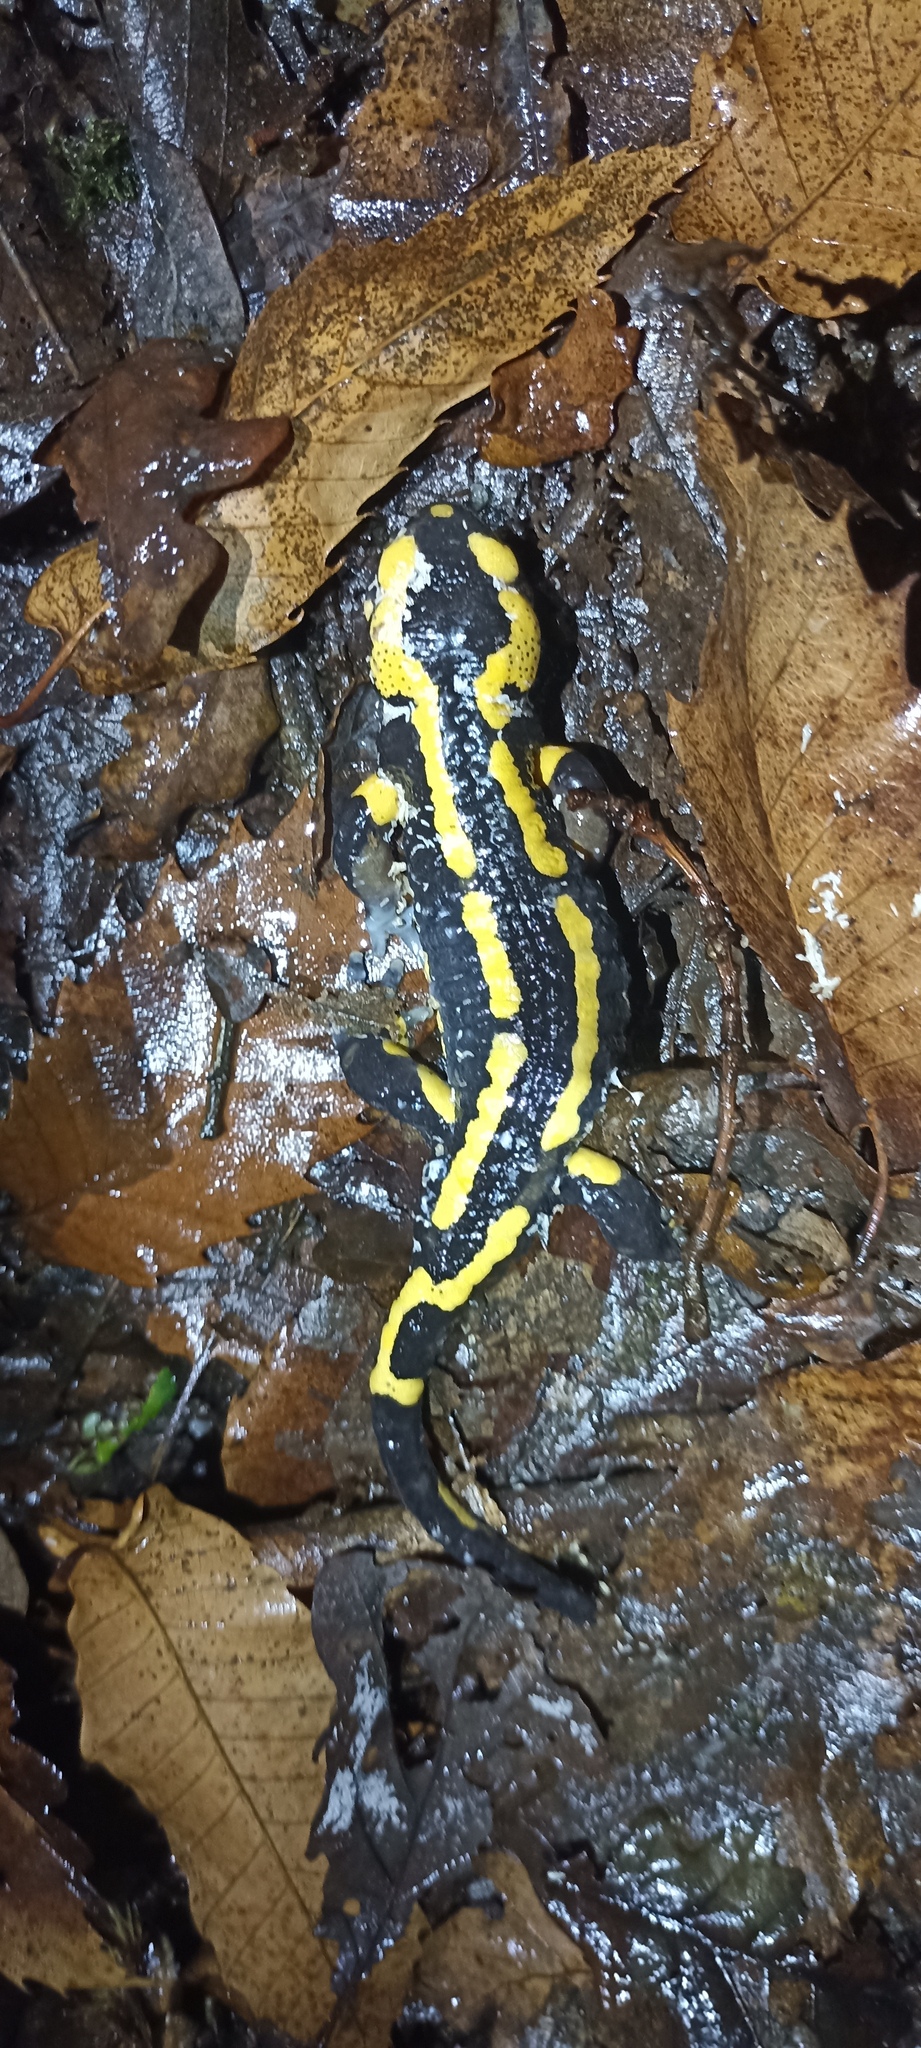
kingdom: Animalia
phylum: Chordata
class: Amphibia
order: Caudata
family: Salamandridae
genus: Salamandra
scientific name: Salamandra salamandra
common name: Fire salamander
